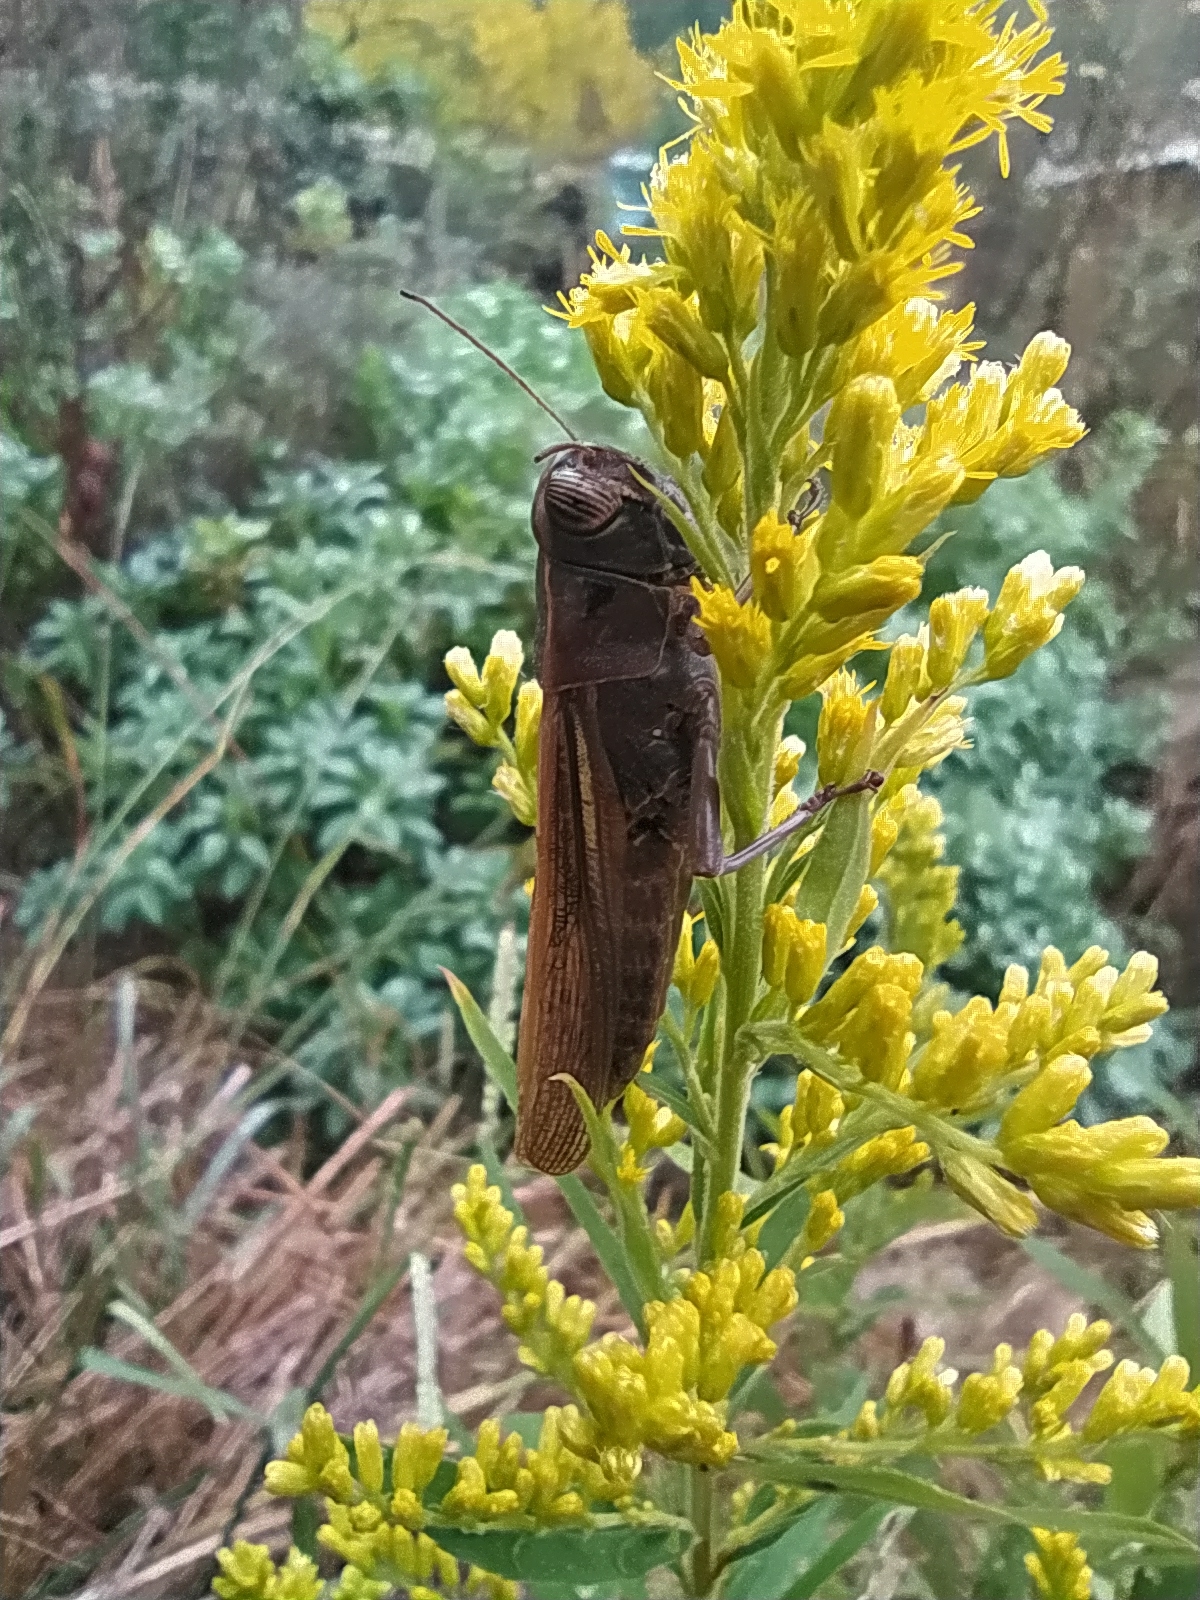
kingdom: Animalia
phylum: Arthropoda
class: Insecta
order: Orthoptera
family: Acrididae
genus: Eyprepocnemis
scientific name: Eyprepocnemis plorans
